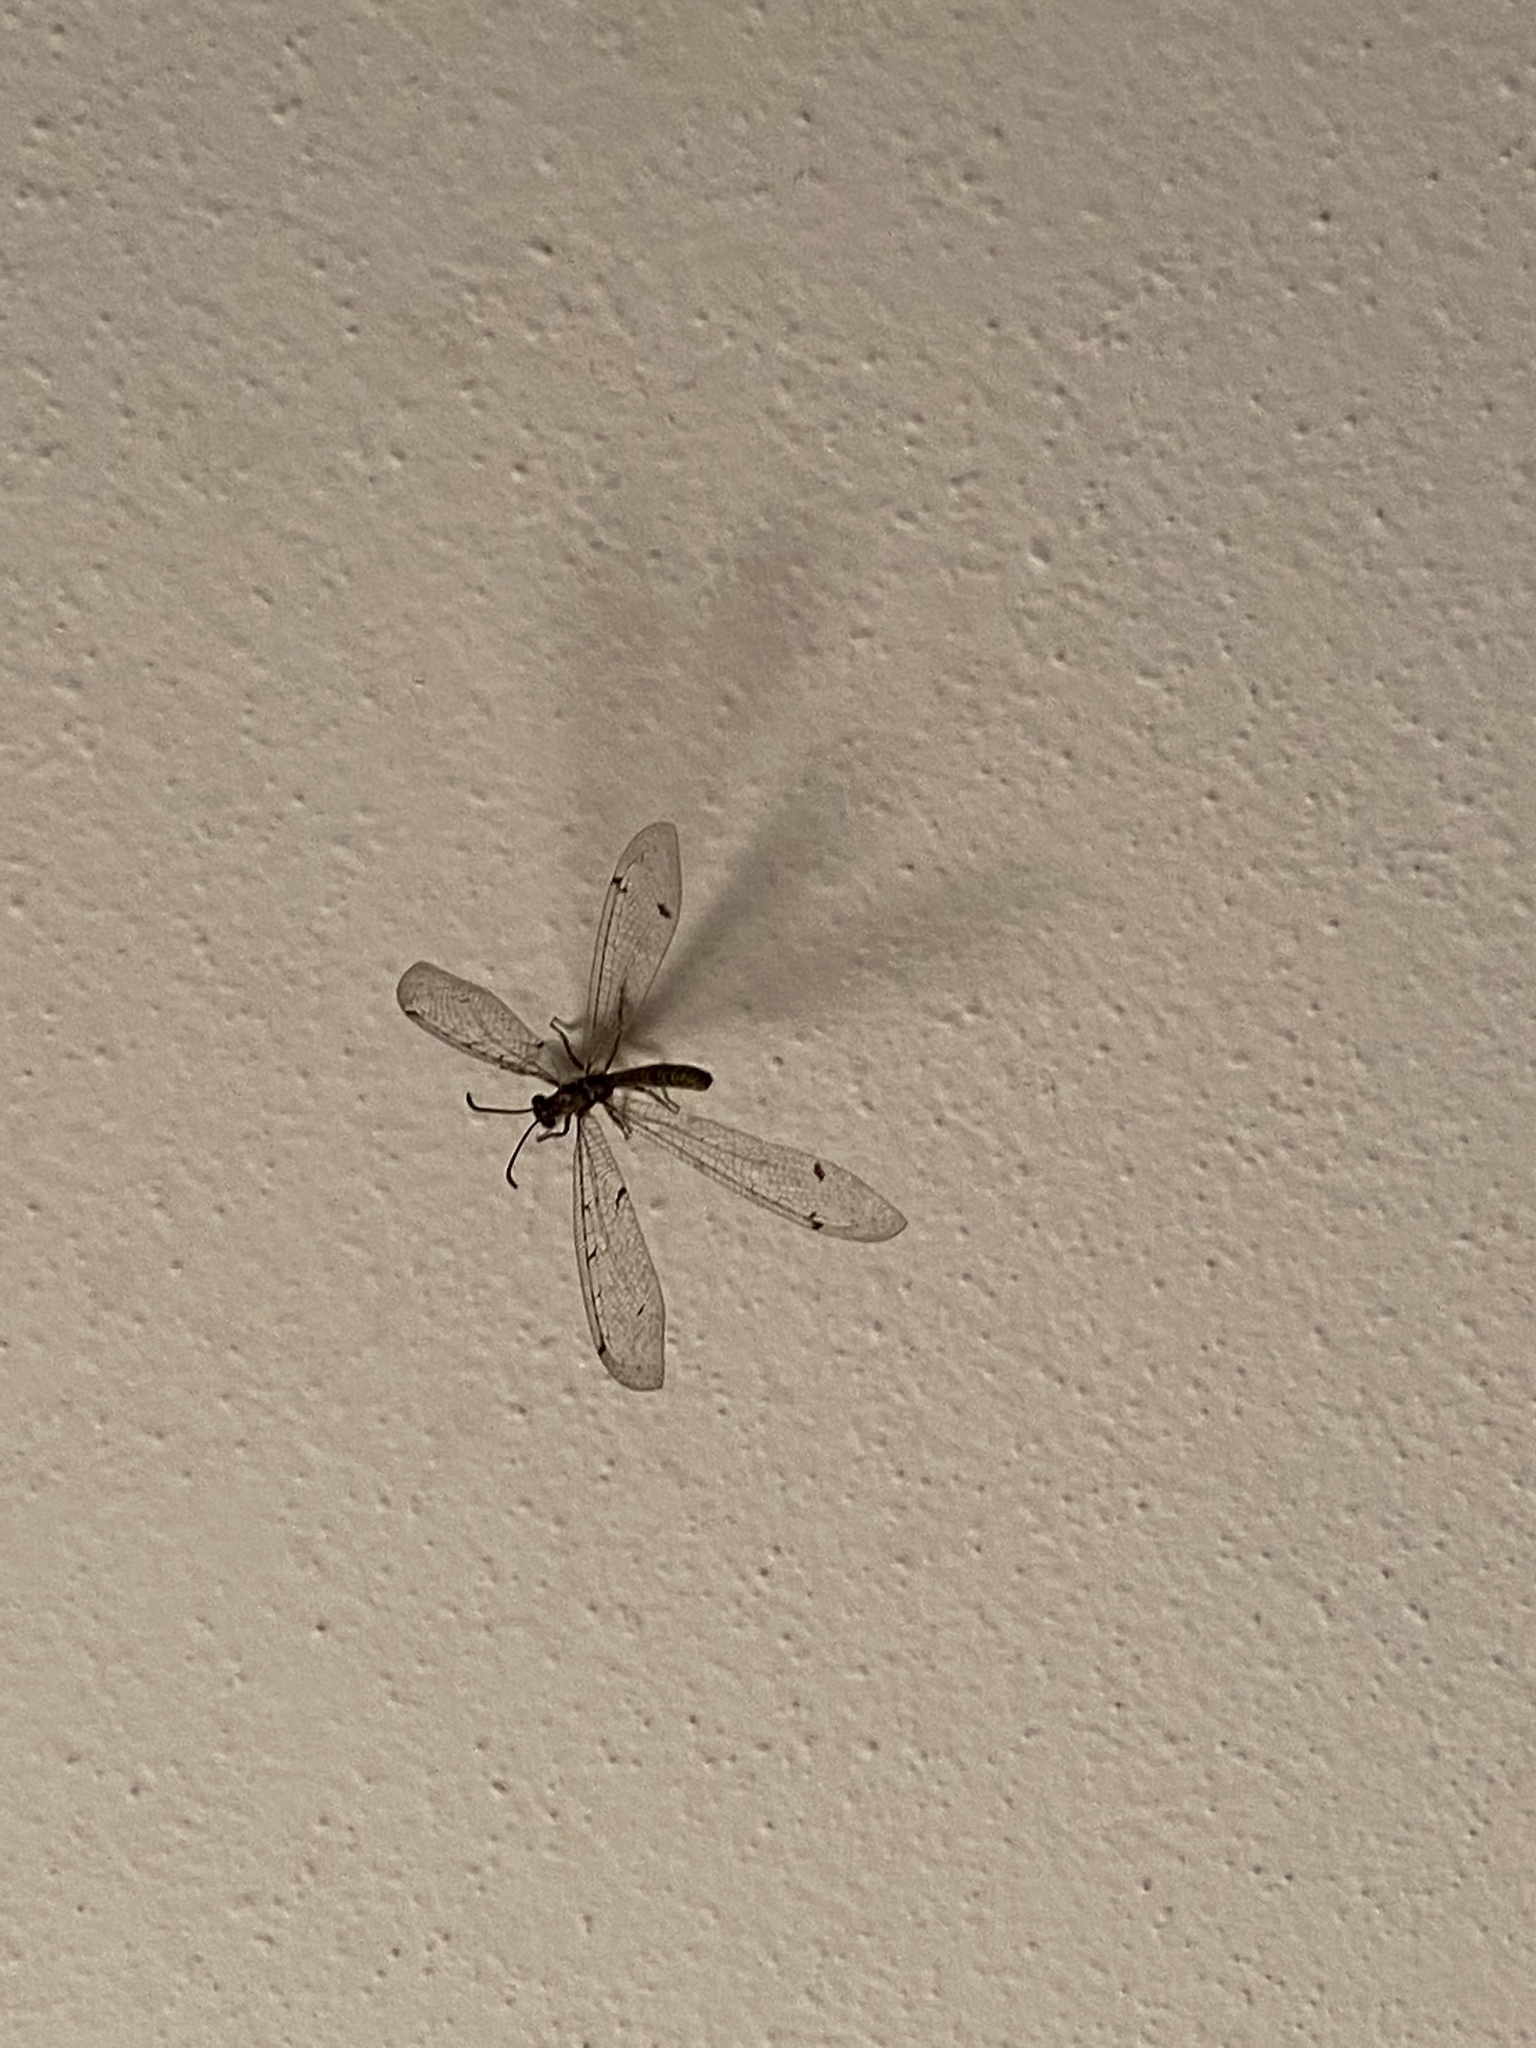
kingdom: Animalia
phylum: Arthropoda
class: Insecta
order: Neuroptera
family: Myrmeleontidae
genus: Distoleon
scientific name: Distoleon tetragrammicus
